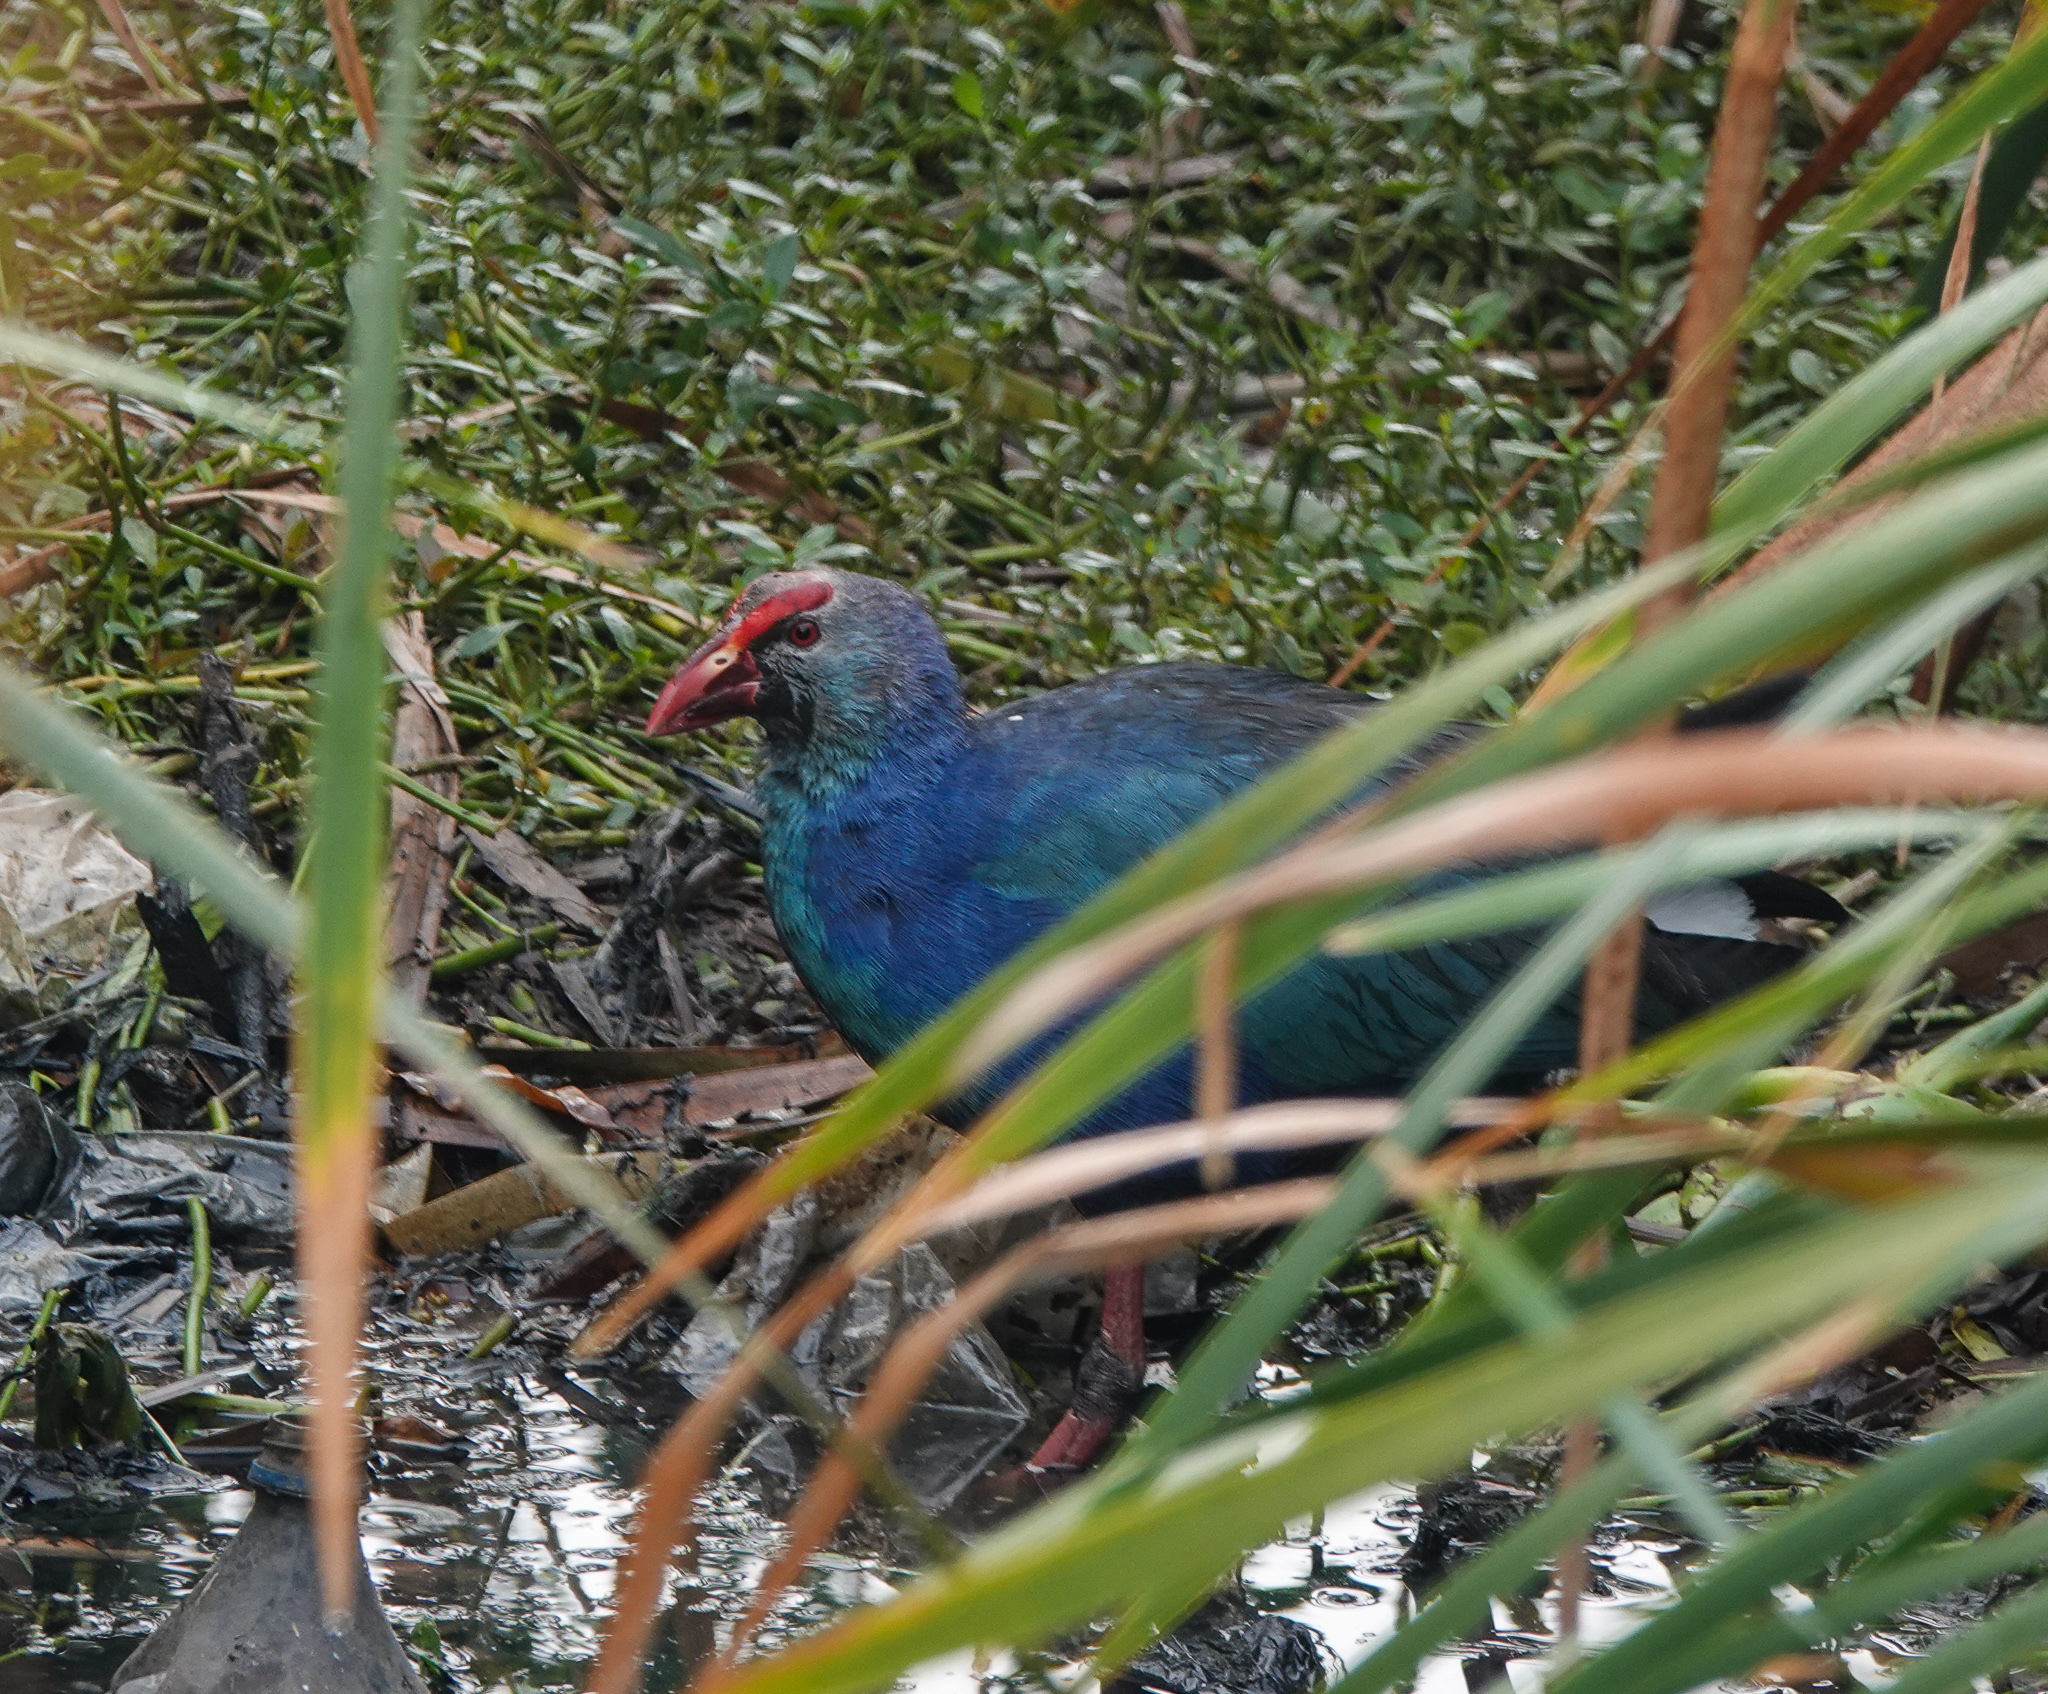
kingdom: Animalia
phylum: Chordata
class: Aves
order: Gruiformes
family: Rallidae
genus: Porphyrio
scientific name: Porphyrio porphyrio
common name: Purple swamphen
